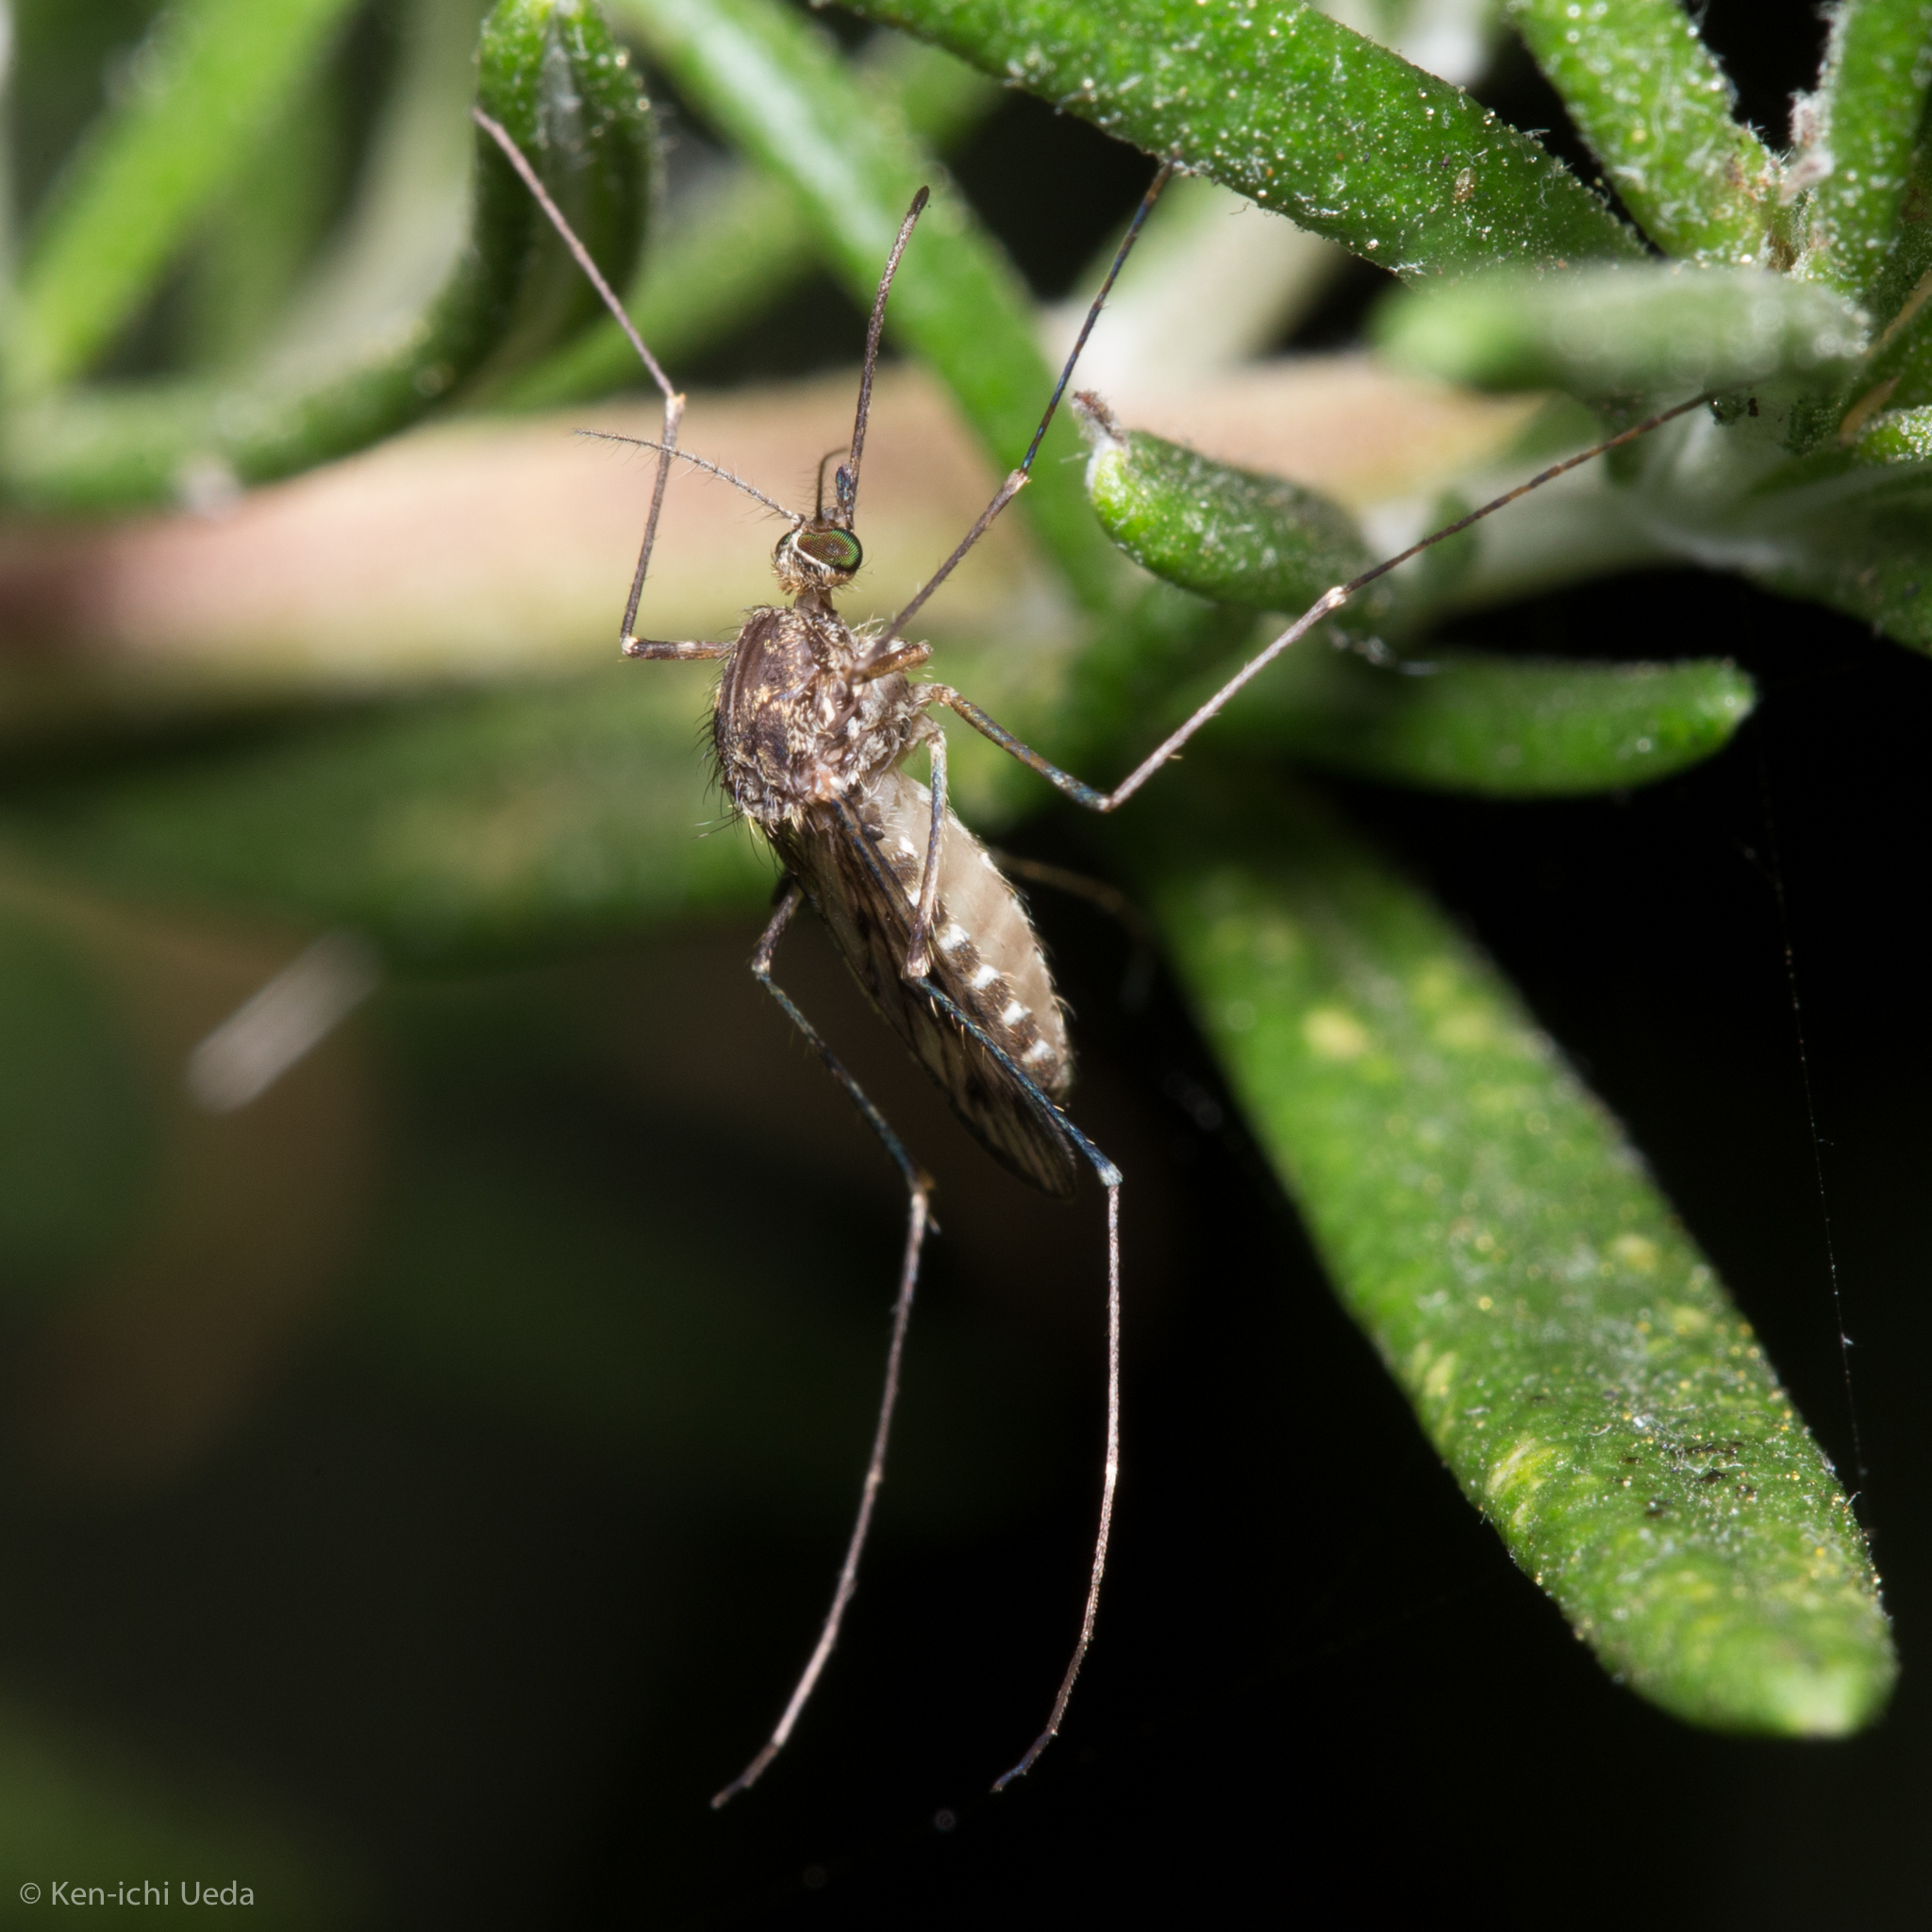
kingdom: Animalia
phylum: Arthropoda
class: Insecta
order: Diptera
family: Culicidae
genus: Culiseta
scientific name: Culiseta incidens
